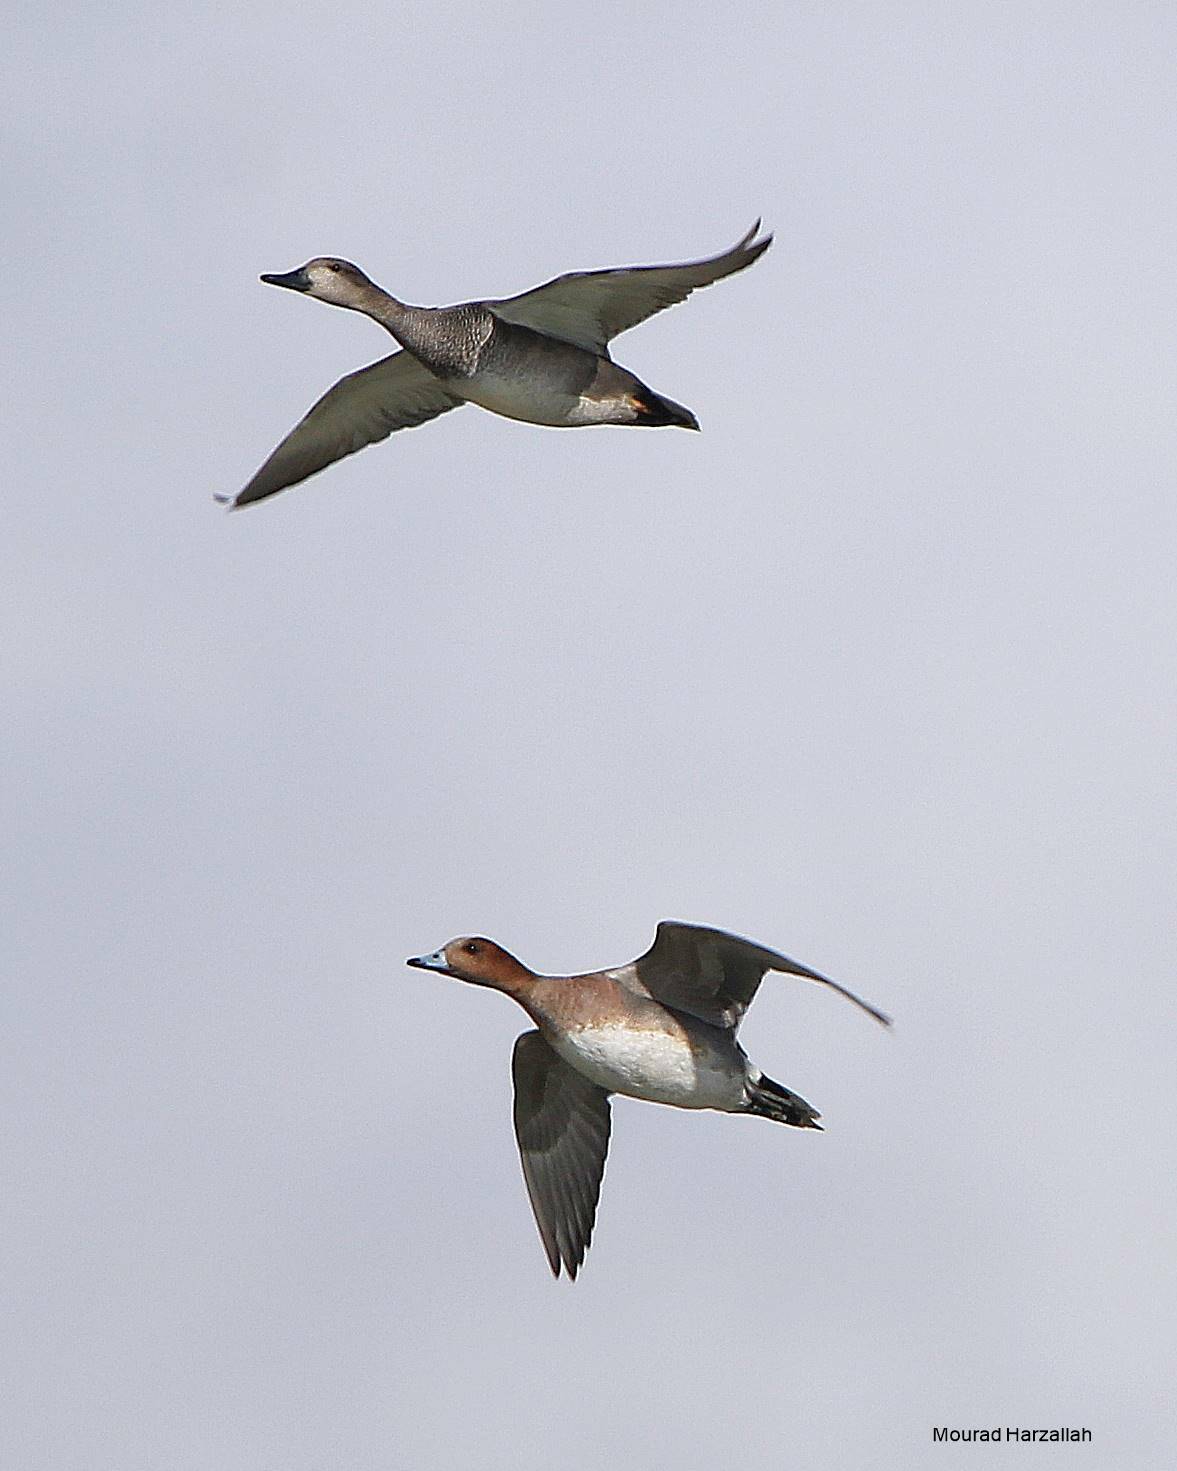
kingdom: Animalia
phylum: Chordata
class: Aves
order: Anseriformes
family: Anatidae
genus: Mareca
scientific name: Mareca penelope
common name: Eurasian wigeon
